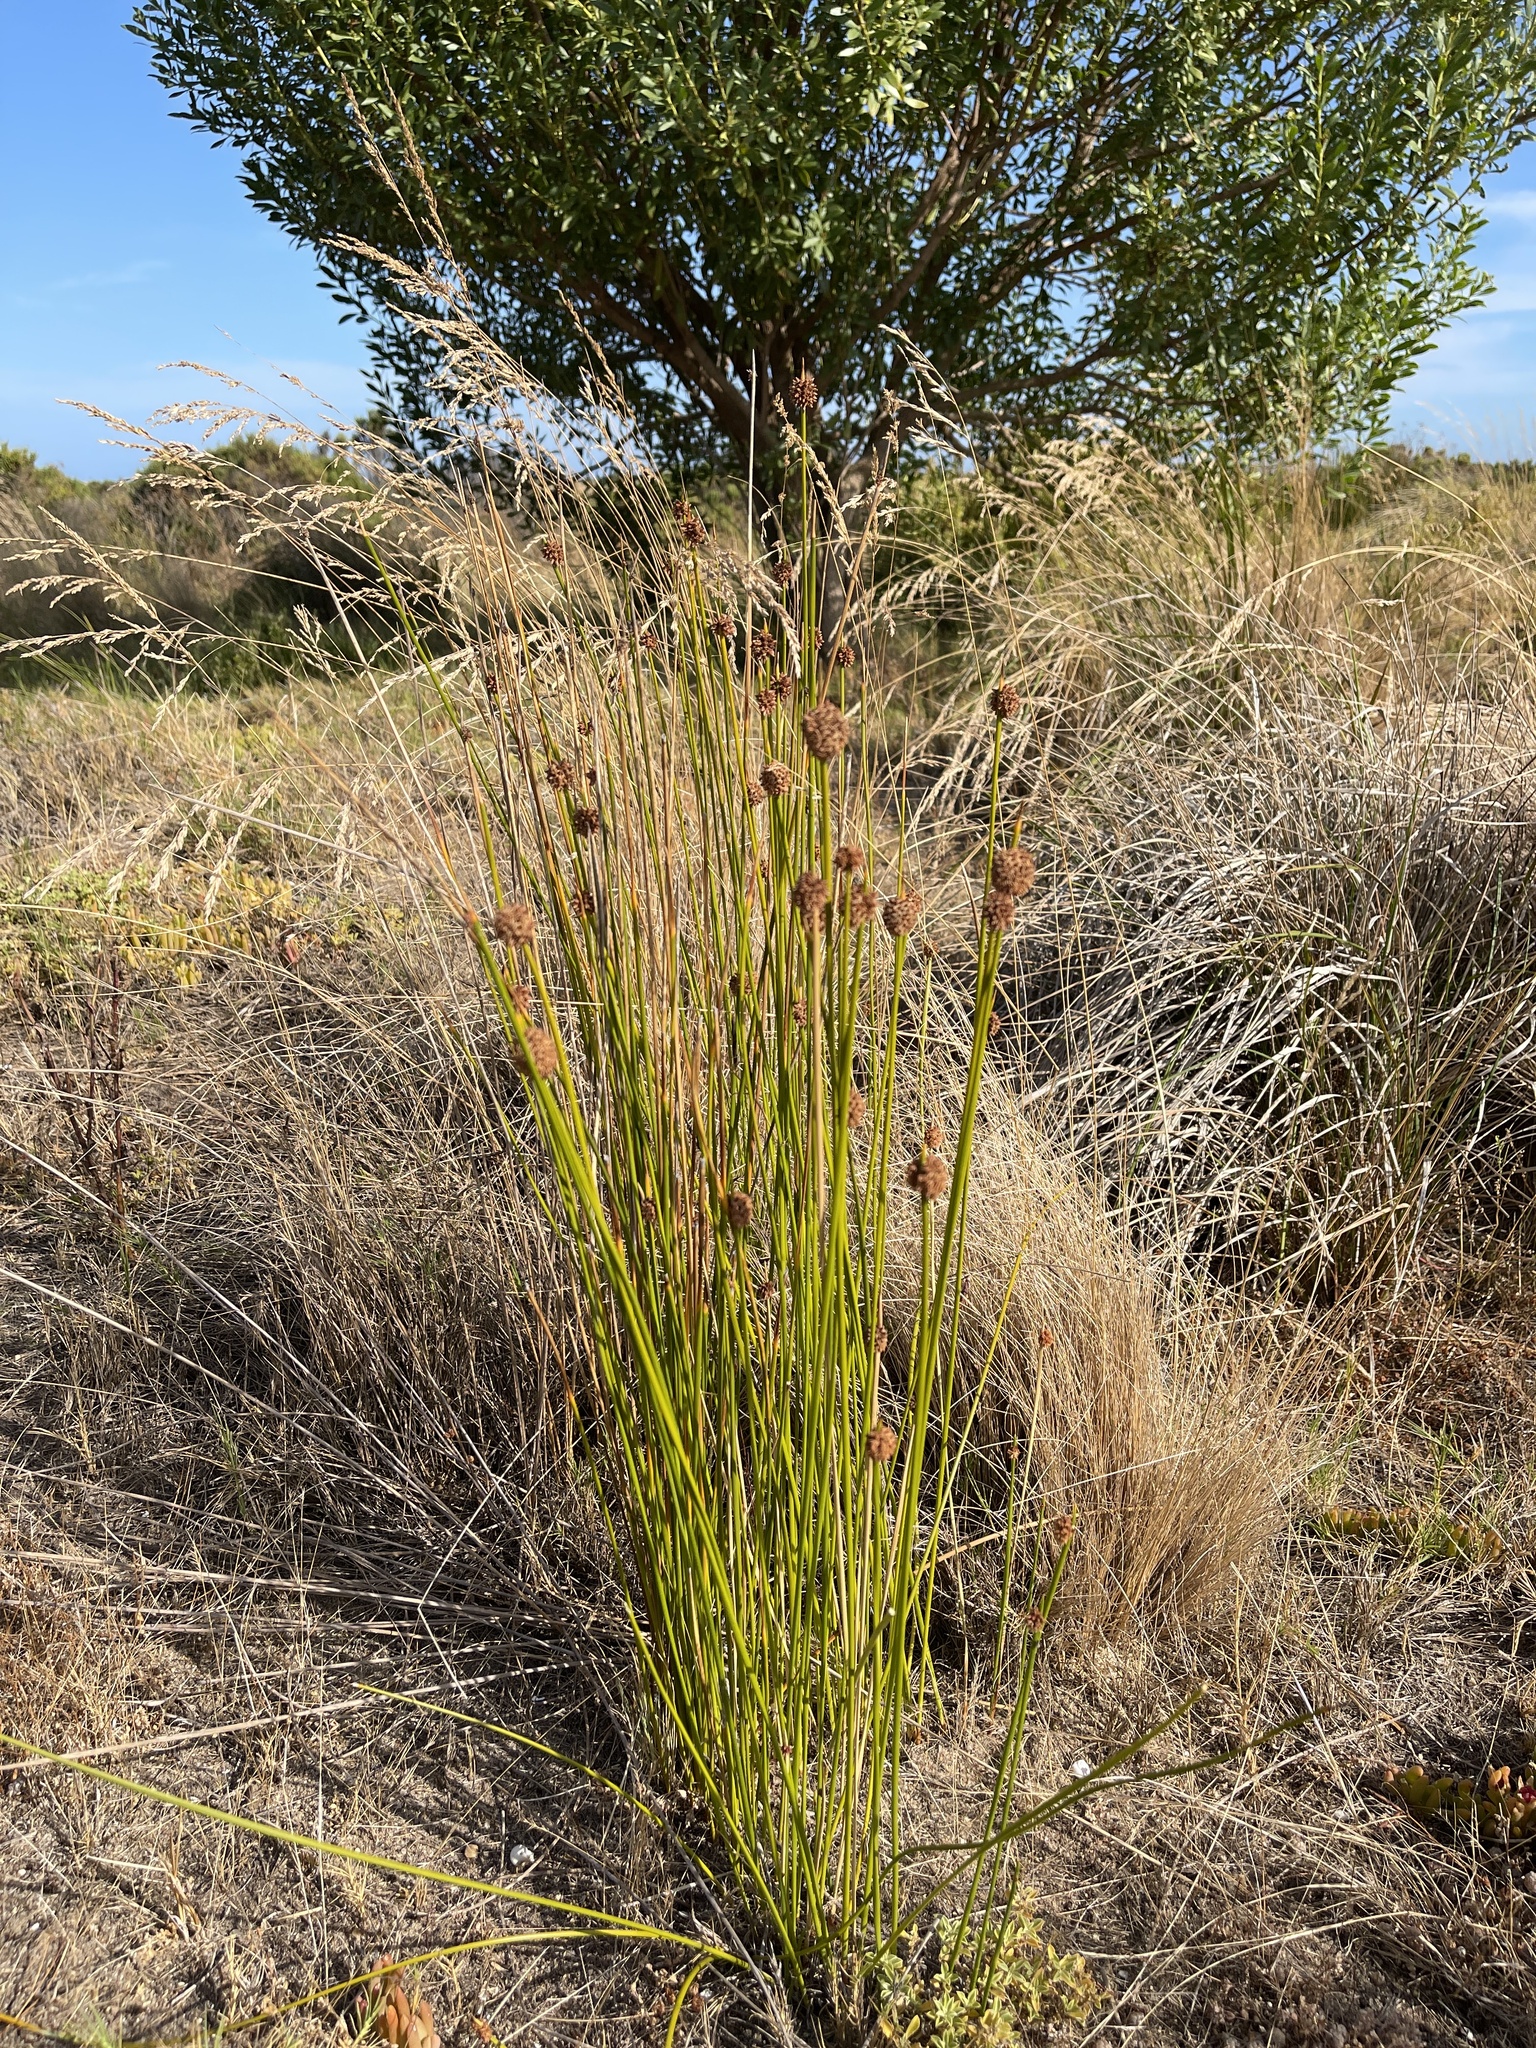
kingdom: Plantae
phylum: Tracheophyta
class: Liliopsida
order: Poales
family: Cyperaceae
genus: Ficinia
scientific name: Ficinia nodosa
